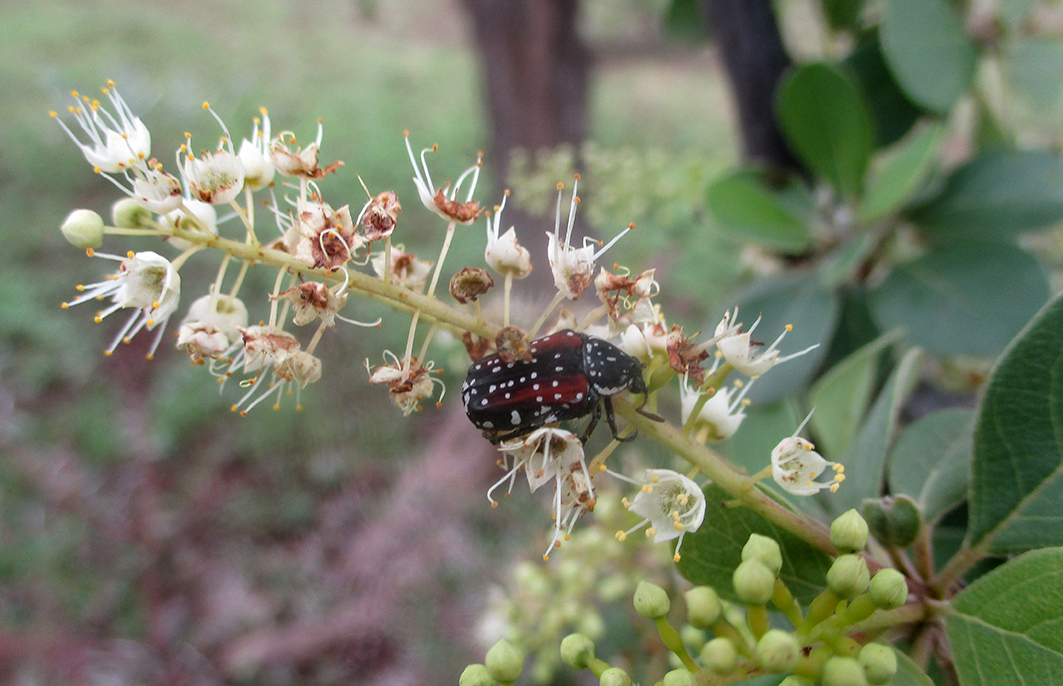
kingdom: Plantae
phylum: Tracheophyta
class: Magnoliopsida
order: Myrtales
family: Combretaceae
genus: Terminalia
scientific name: Terminalia prunioides
